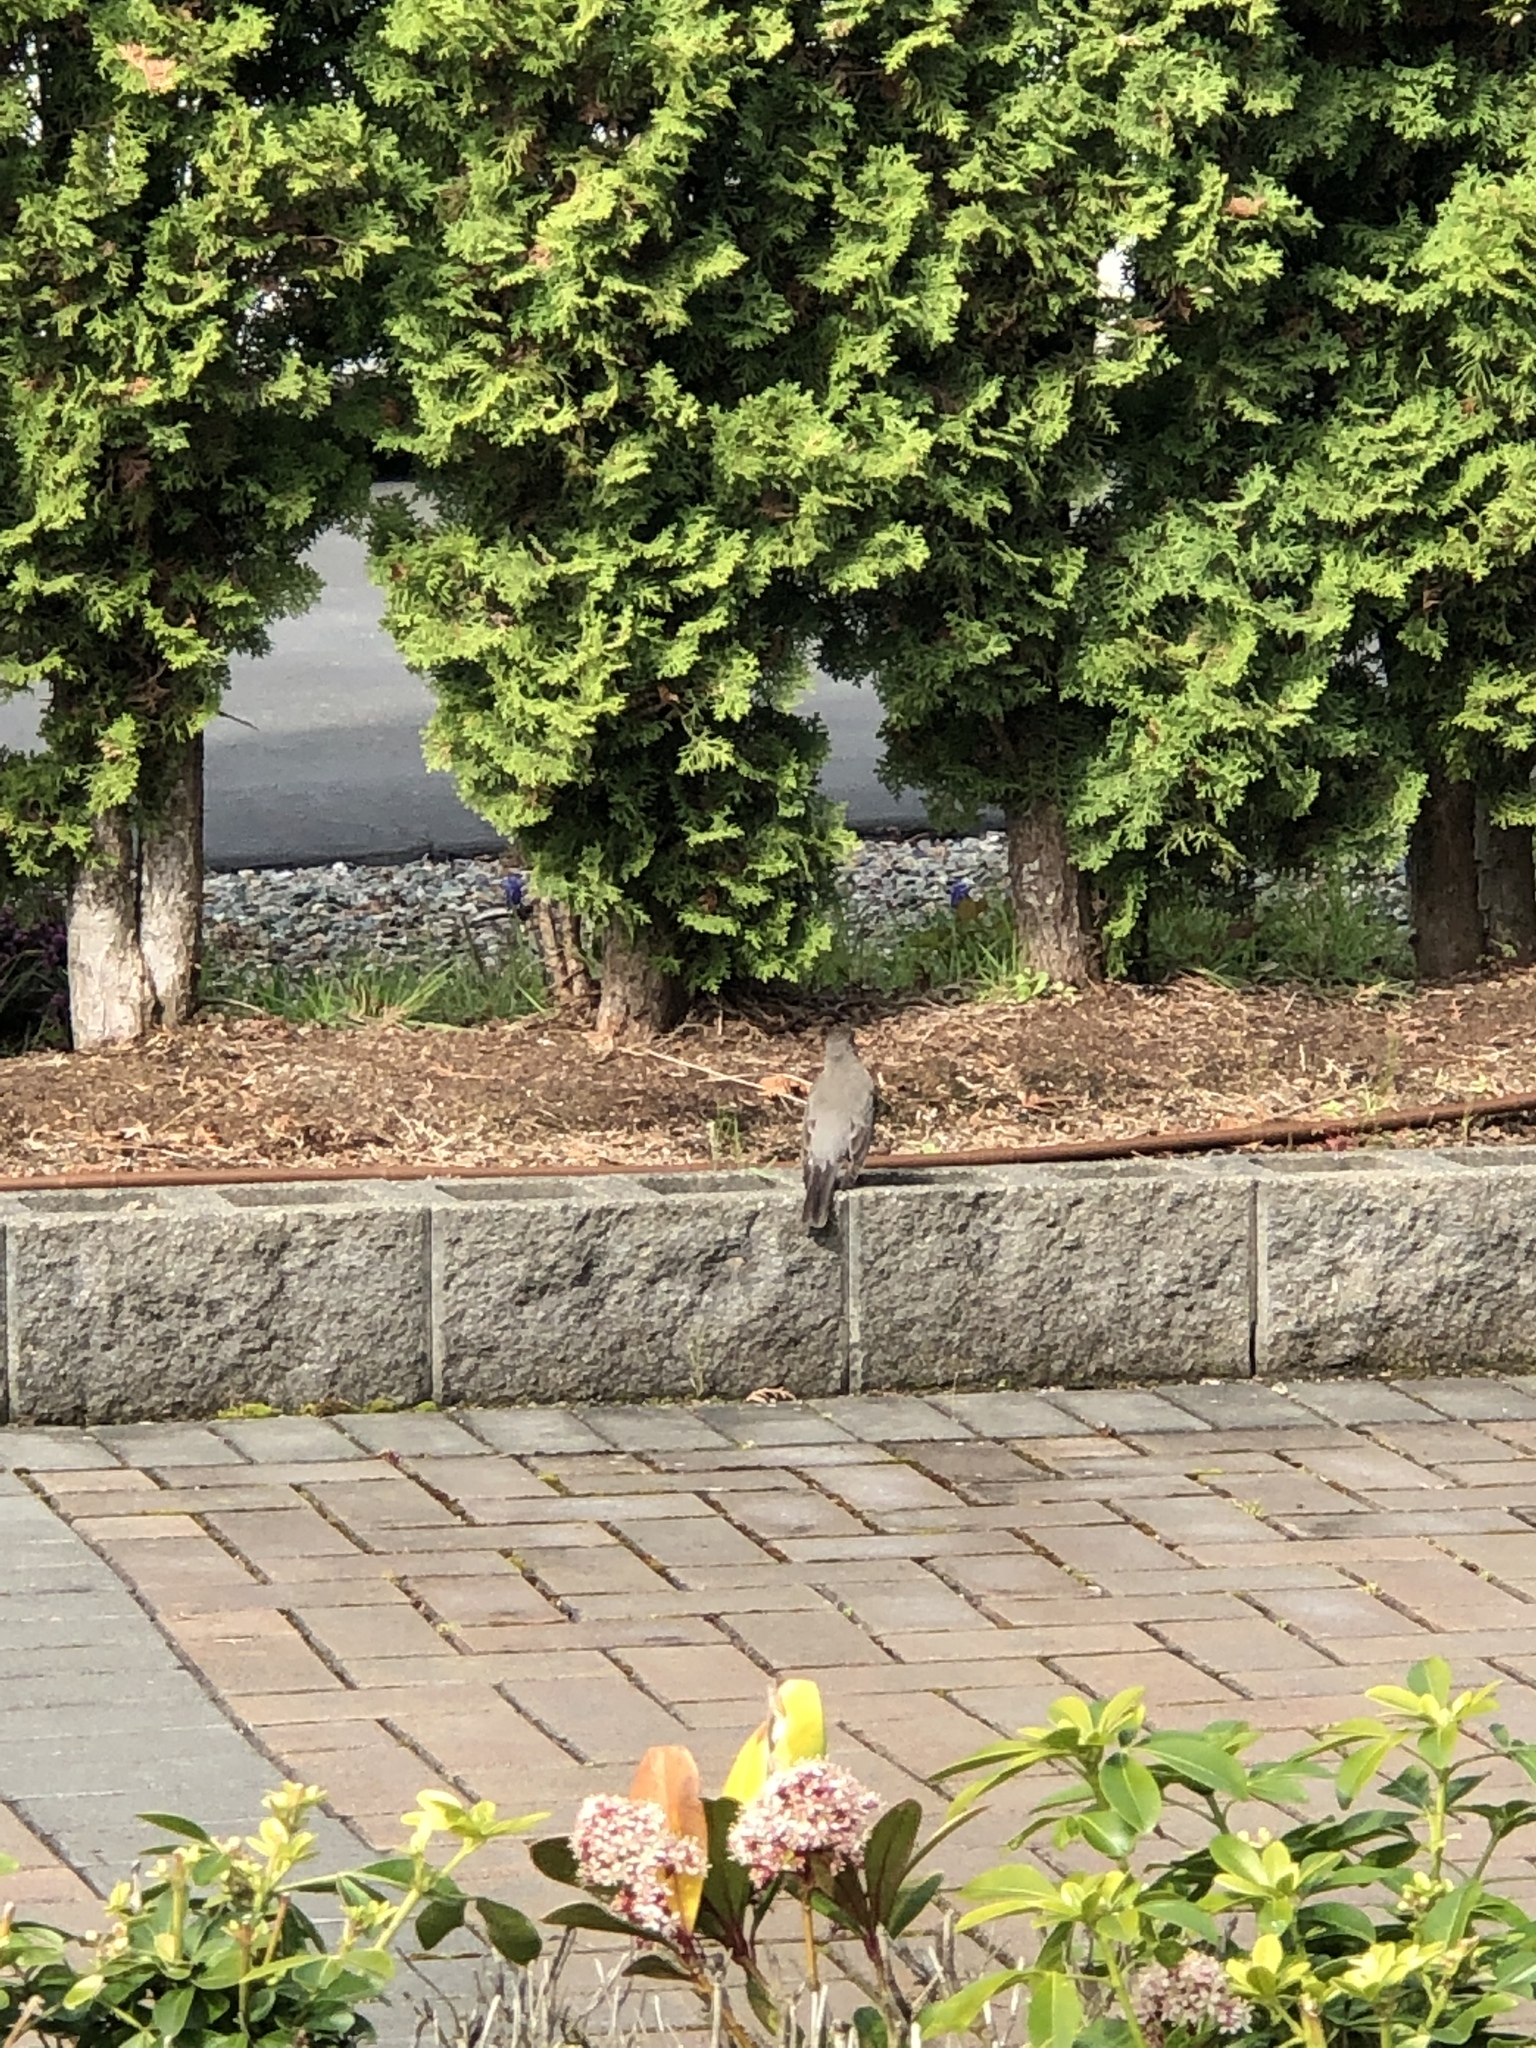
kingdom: Animalia
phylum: Chordata
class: Aves
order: Passeriformes
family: Turdidae
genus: Turdus
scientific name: Turdus migratorius
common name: American robin
